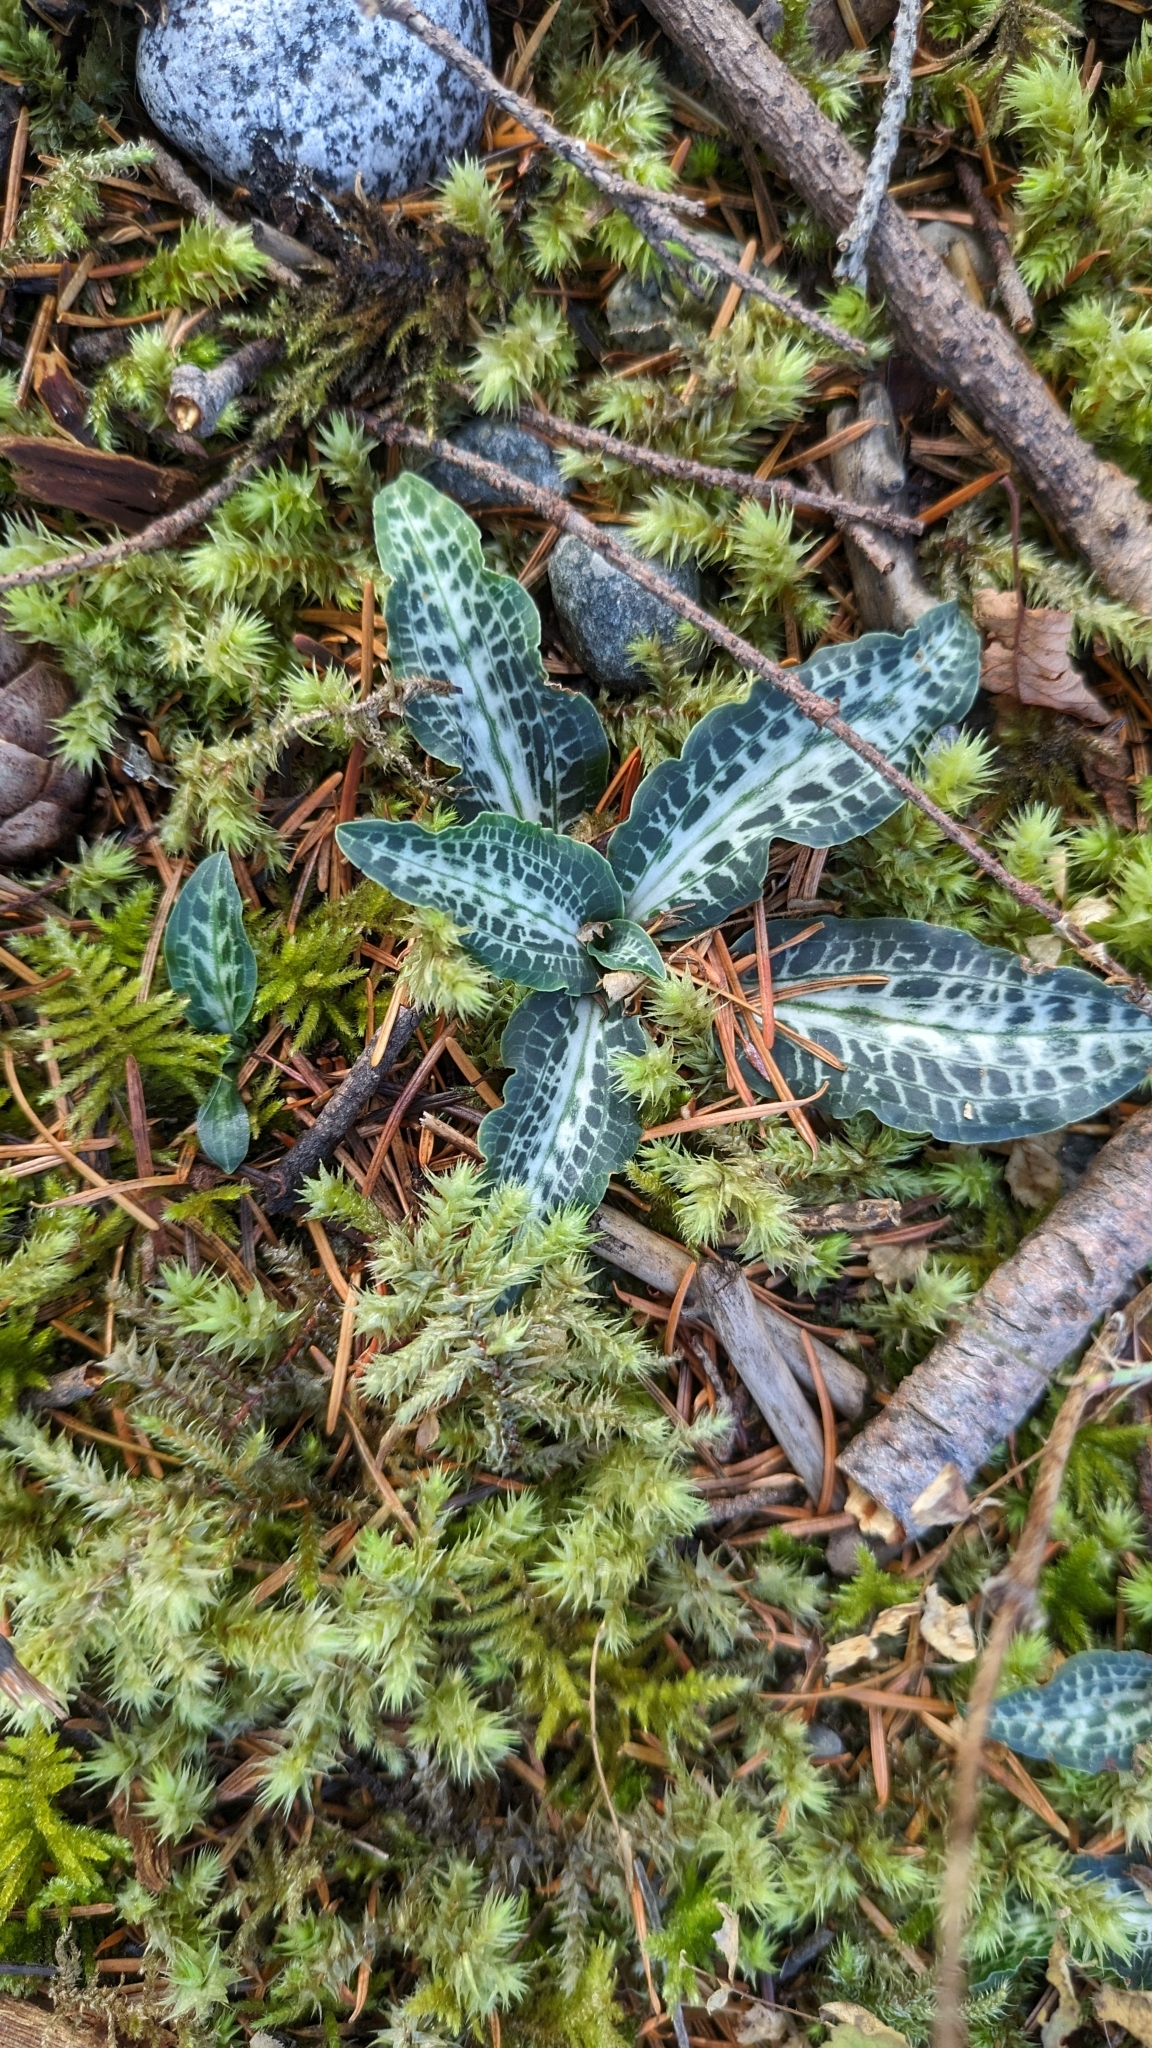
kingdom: Plantae
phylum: Tracheophyta
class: Liliopsida
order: Asparagales
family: Orchidaceae
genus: Goodyera
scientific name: Goodyera oblongifolia
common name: Giant rattlesnake-plantain
